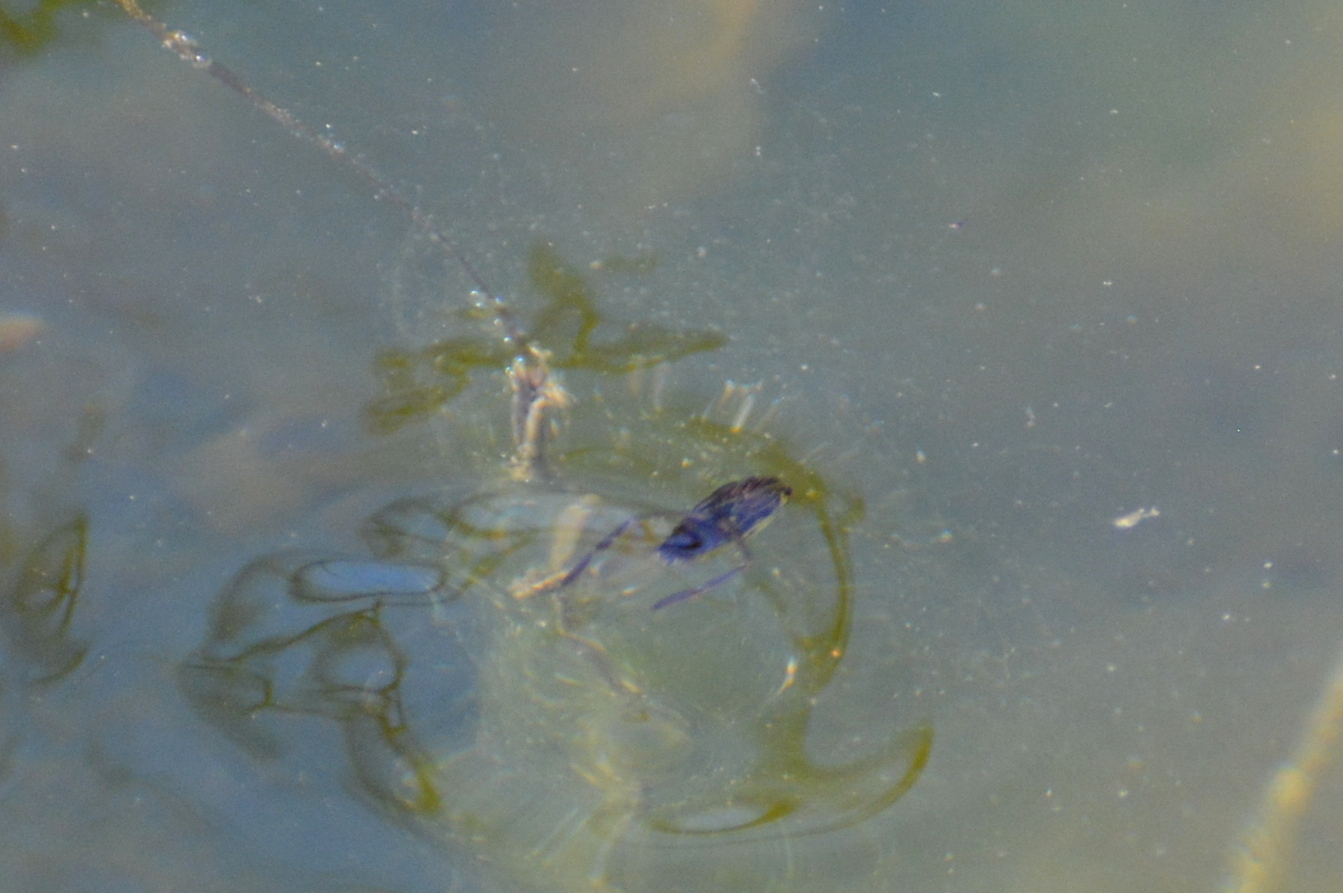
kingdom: Animalia
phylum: Arthropoda
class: Insecta
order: Hemiptera
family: Notonectidae
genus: Notonecta
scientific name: Notonecta
